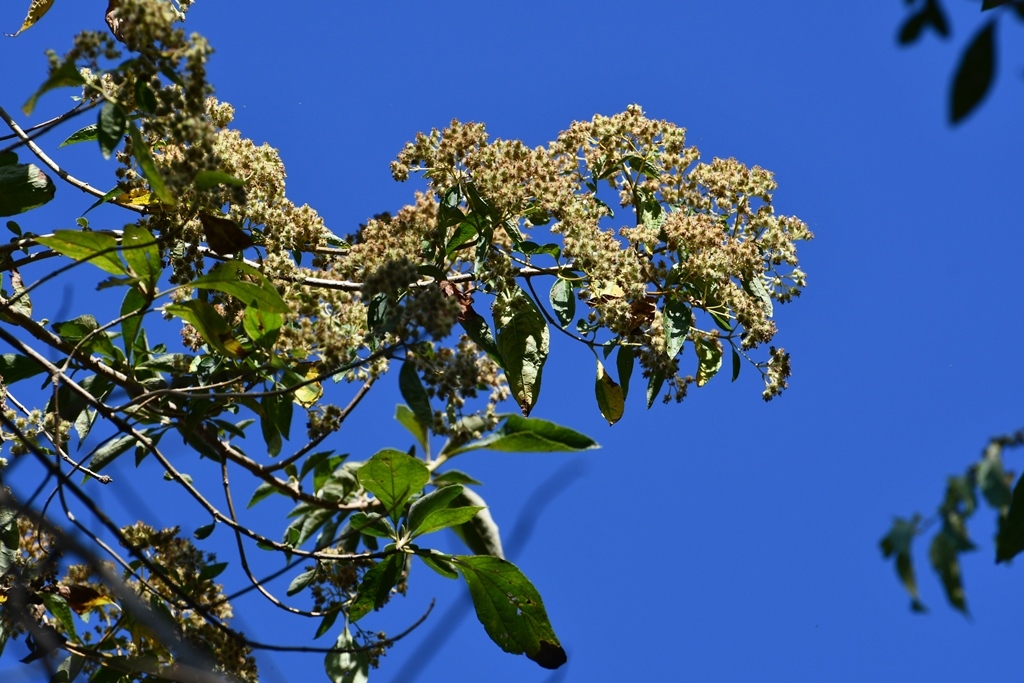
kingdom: Plantae
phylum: Tracheophyta
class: Magnoliopsida
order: Asterales
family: Asteraceae
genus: Montanoa
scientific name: Montanoa tomentosa
